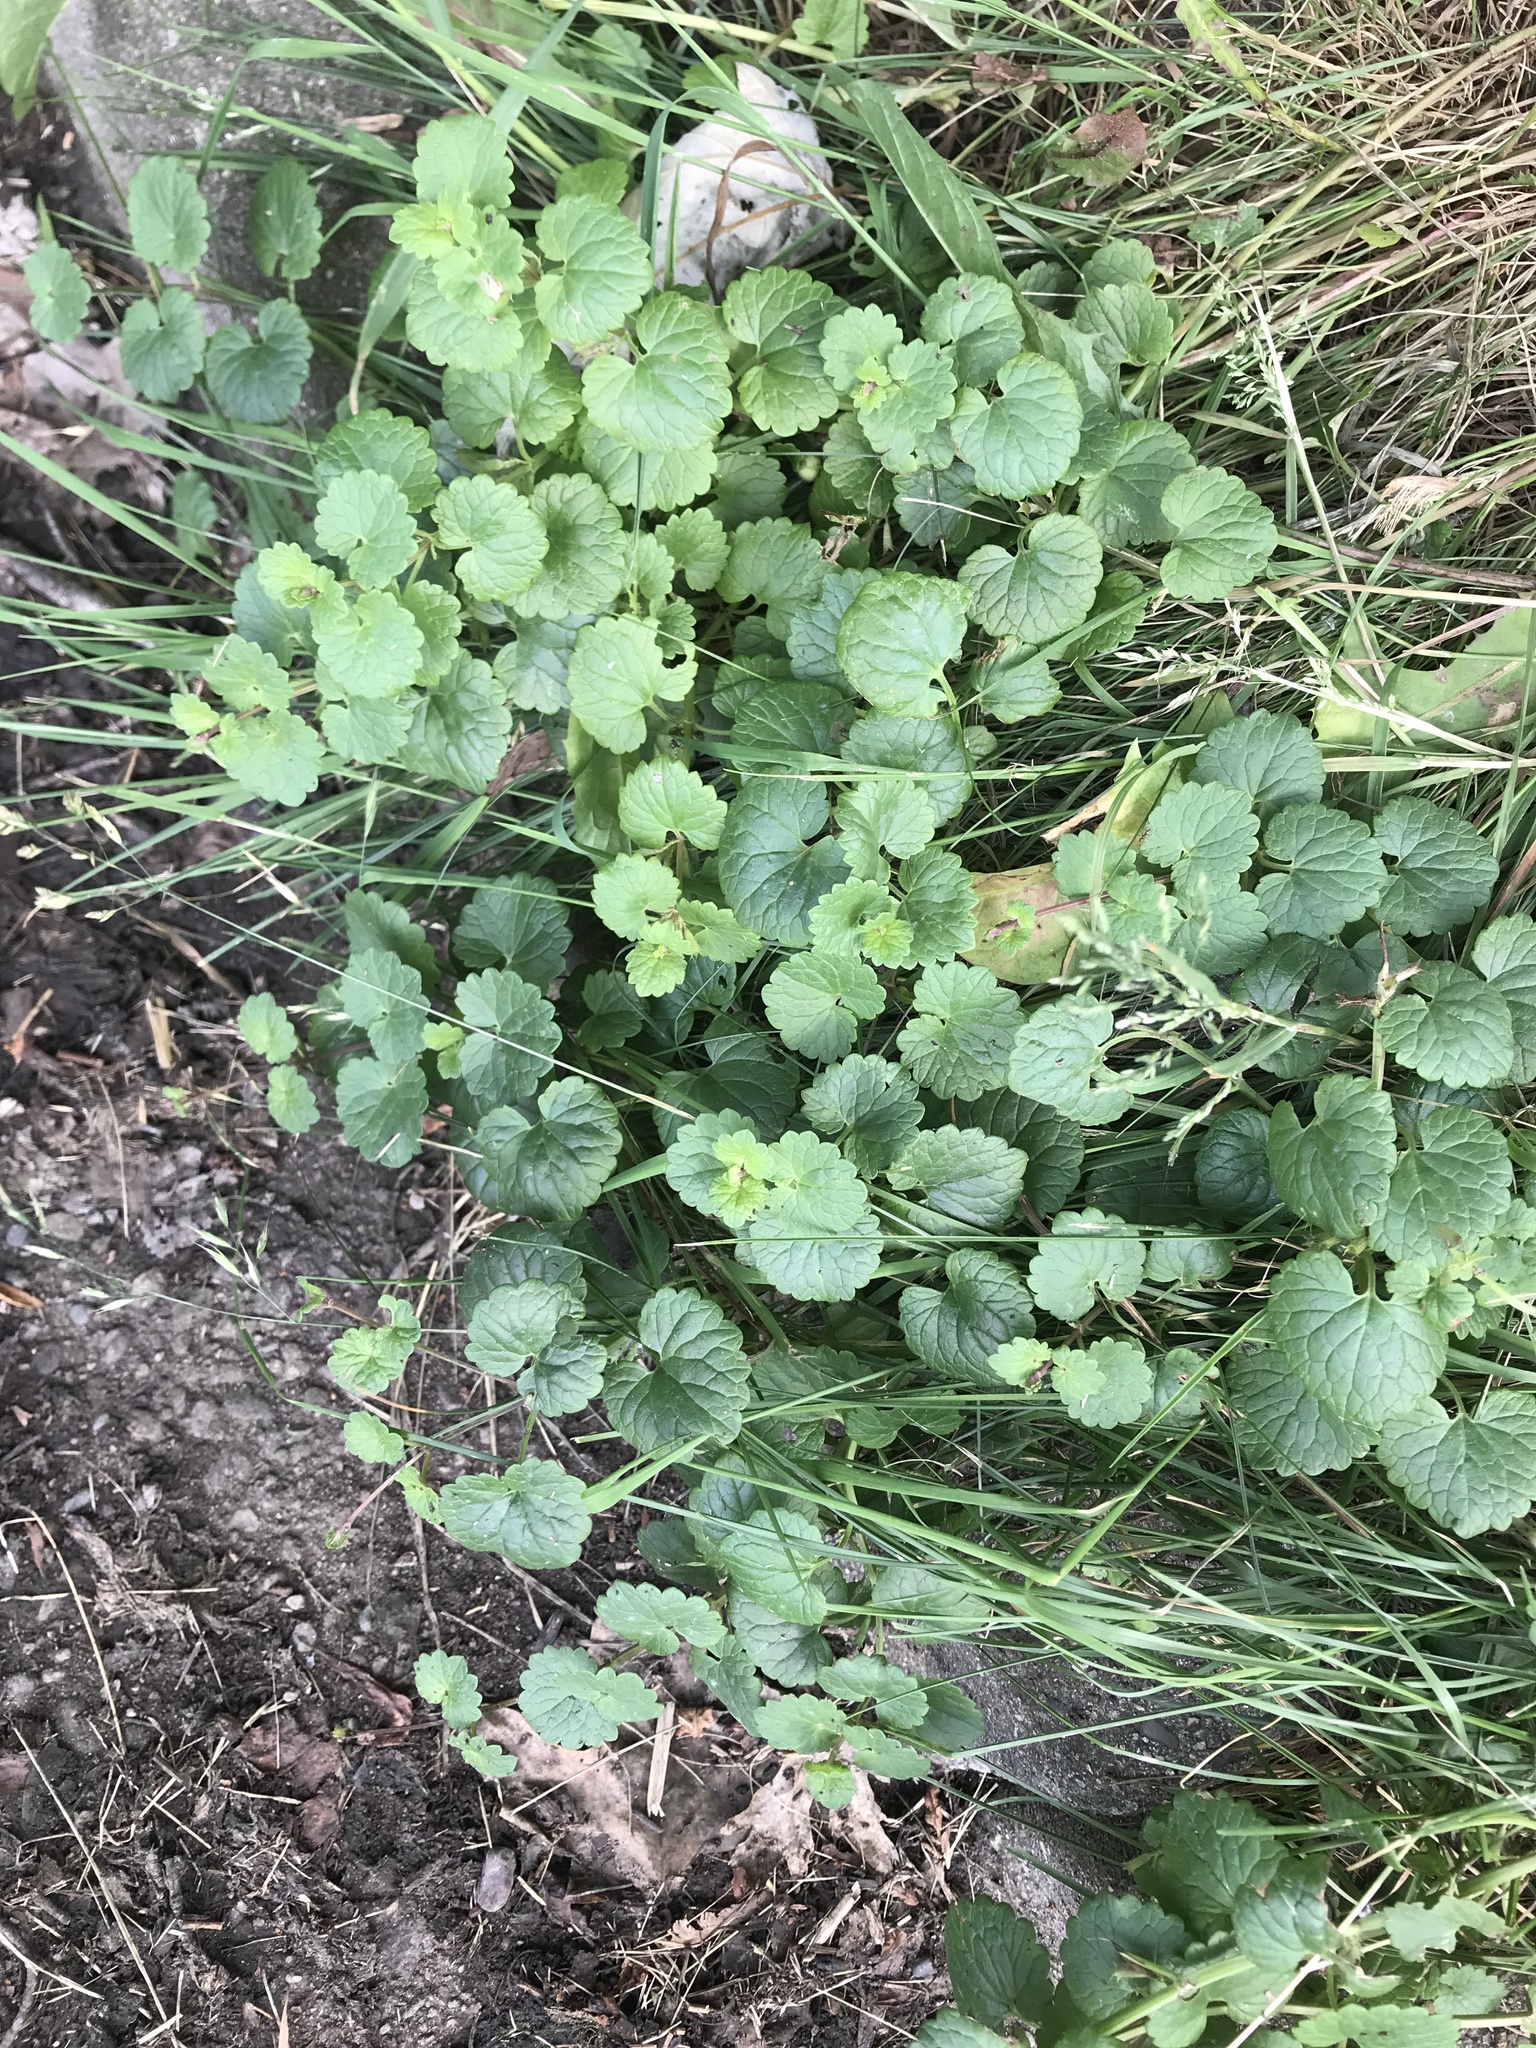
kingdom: Plantae
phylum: Tracheophyta
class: Magnoliopsida
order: Lamiales
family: Lamiaceae
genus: Glechoma
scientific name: Glechoma hederacea
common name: Ground ivy
